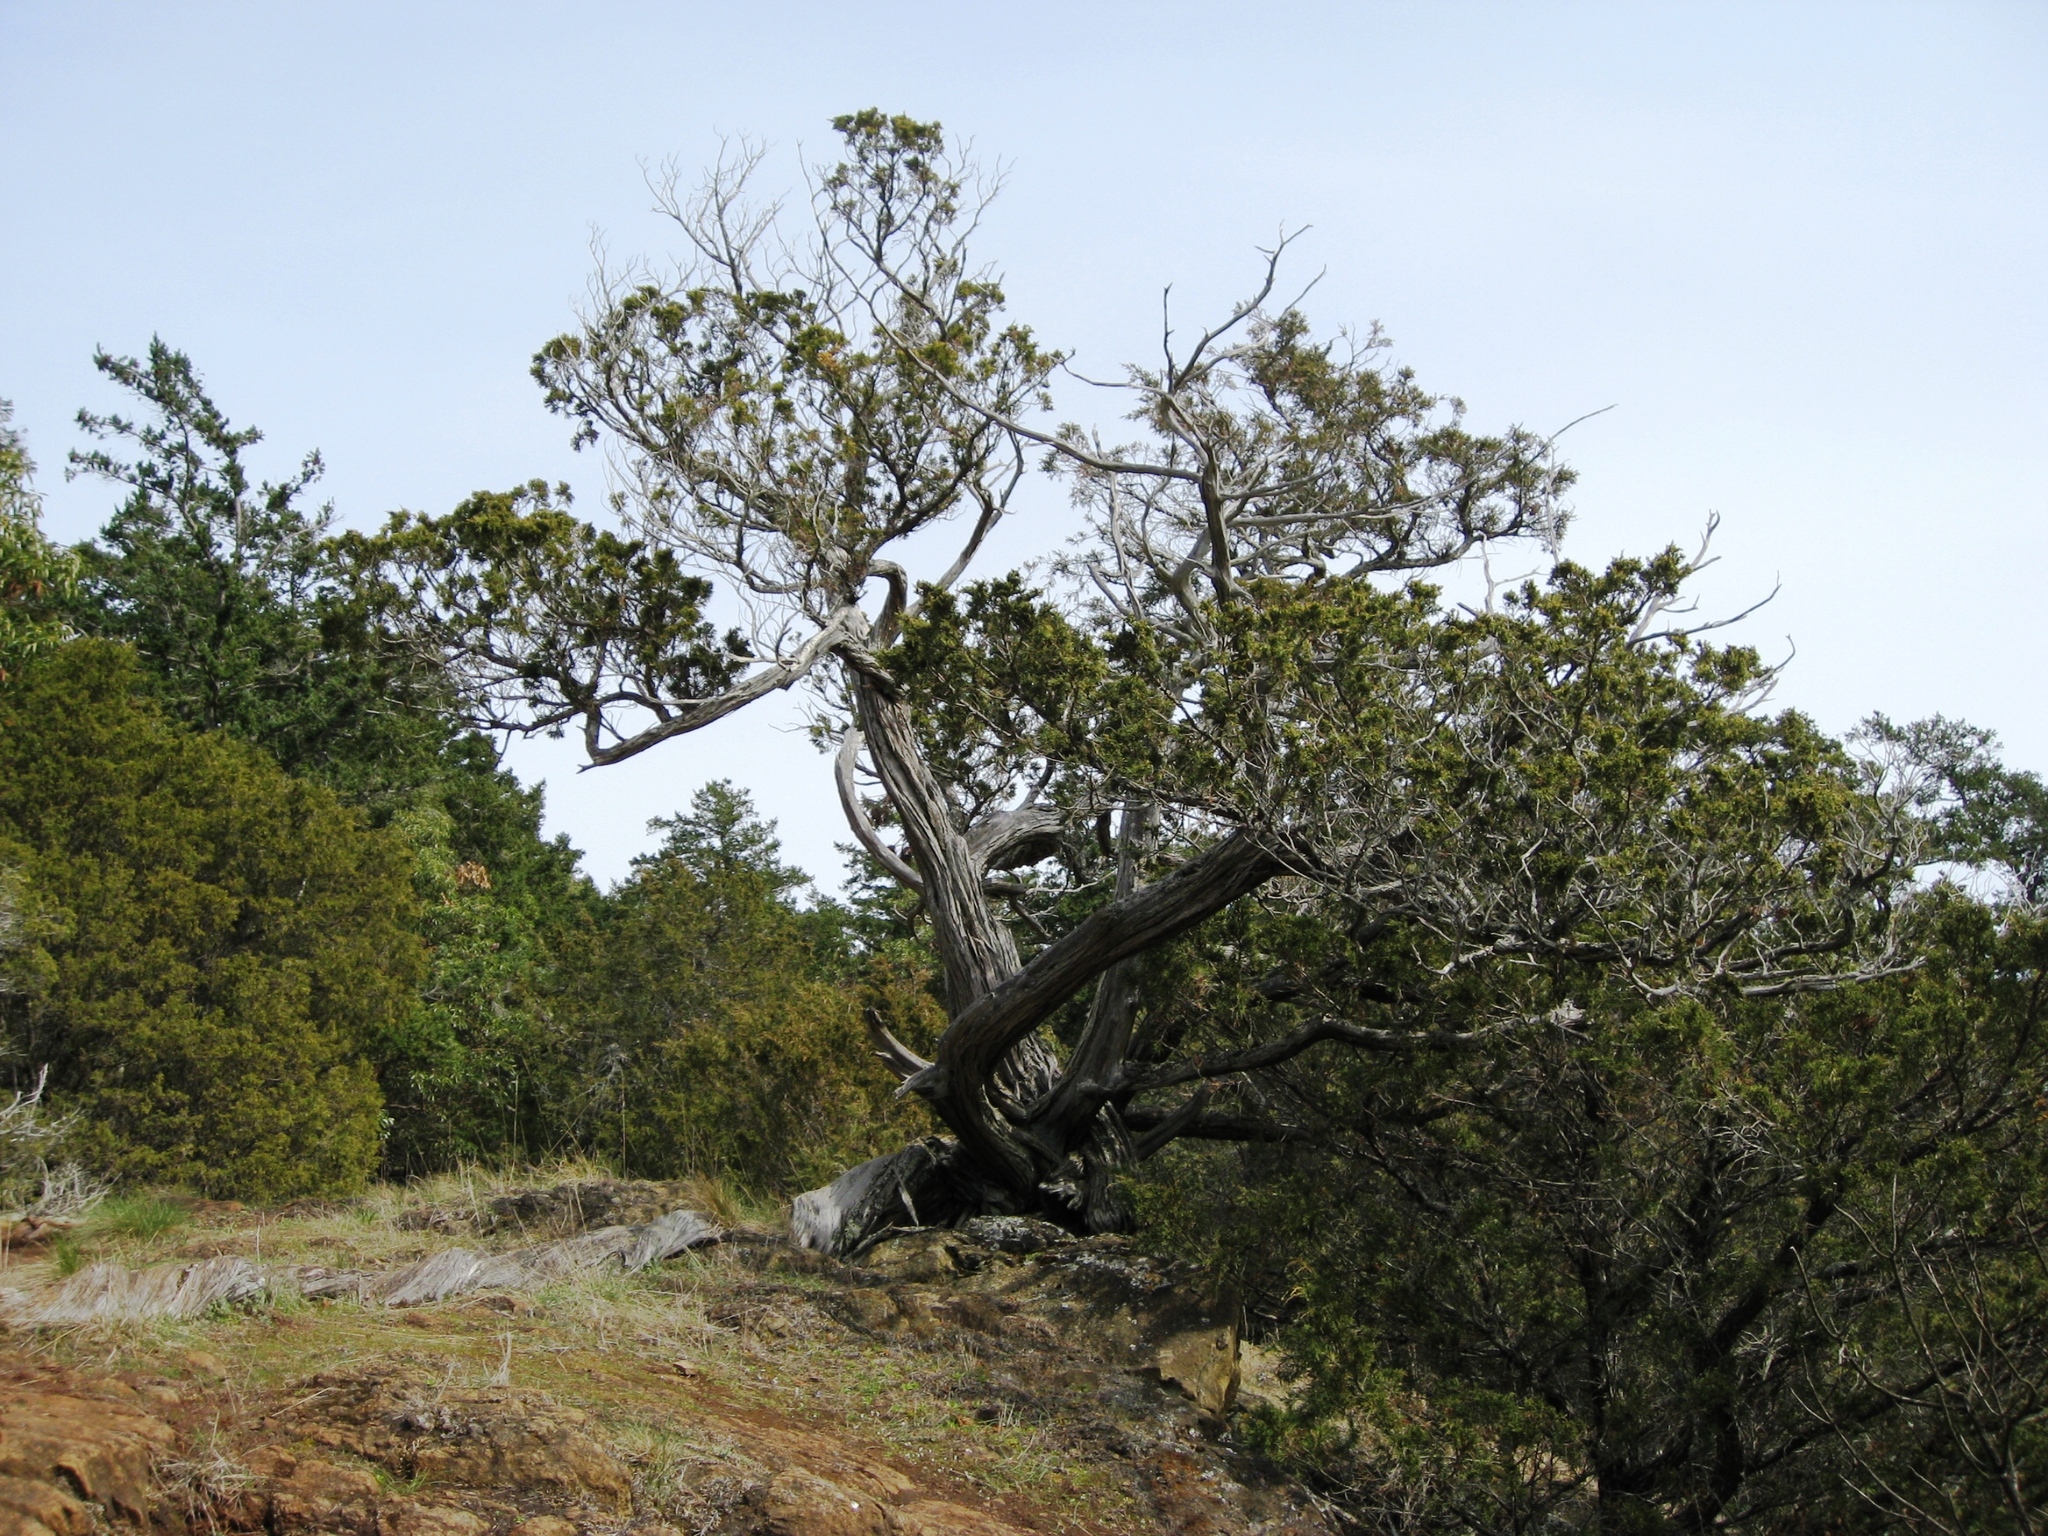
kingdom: Plantae
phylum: Tracheophyta
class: Pinopsida
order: Pinales
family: Cupressaceae
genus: Juniperus
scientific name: Juniperus scopulorum
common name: Rocky mountain juniper
